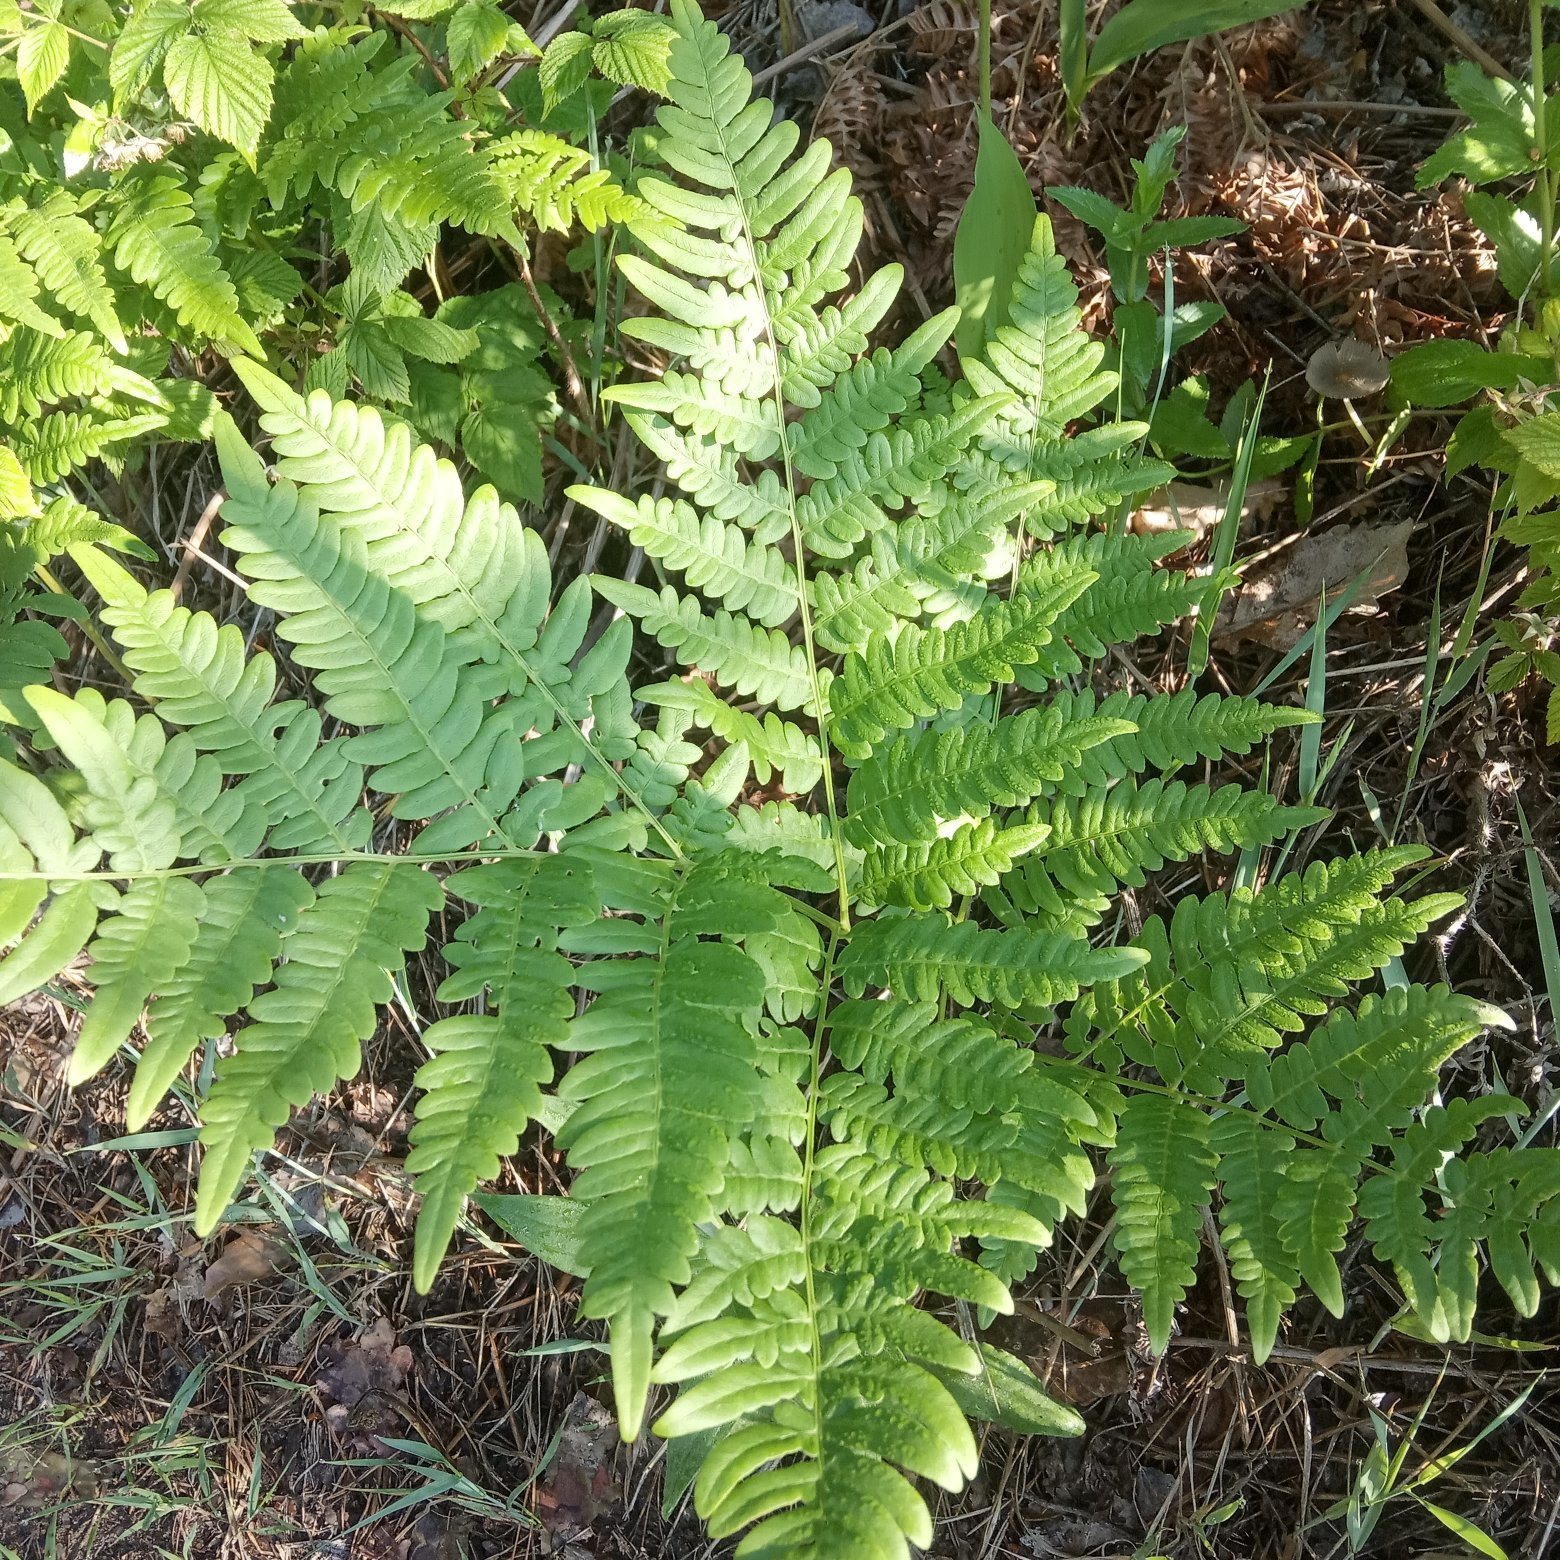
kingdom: Plantae
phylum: Tracheophyta
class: Polypodiopsida
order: Polypodiales
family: Dennstaedtiaceae
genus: Pteridium
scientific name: Pteridium aquilinum
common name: Bracken
